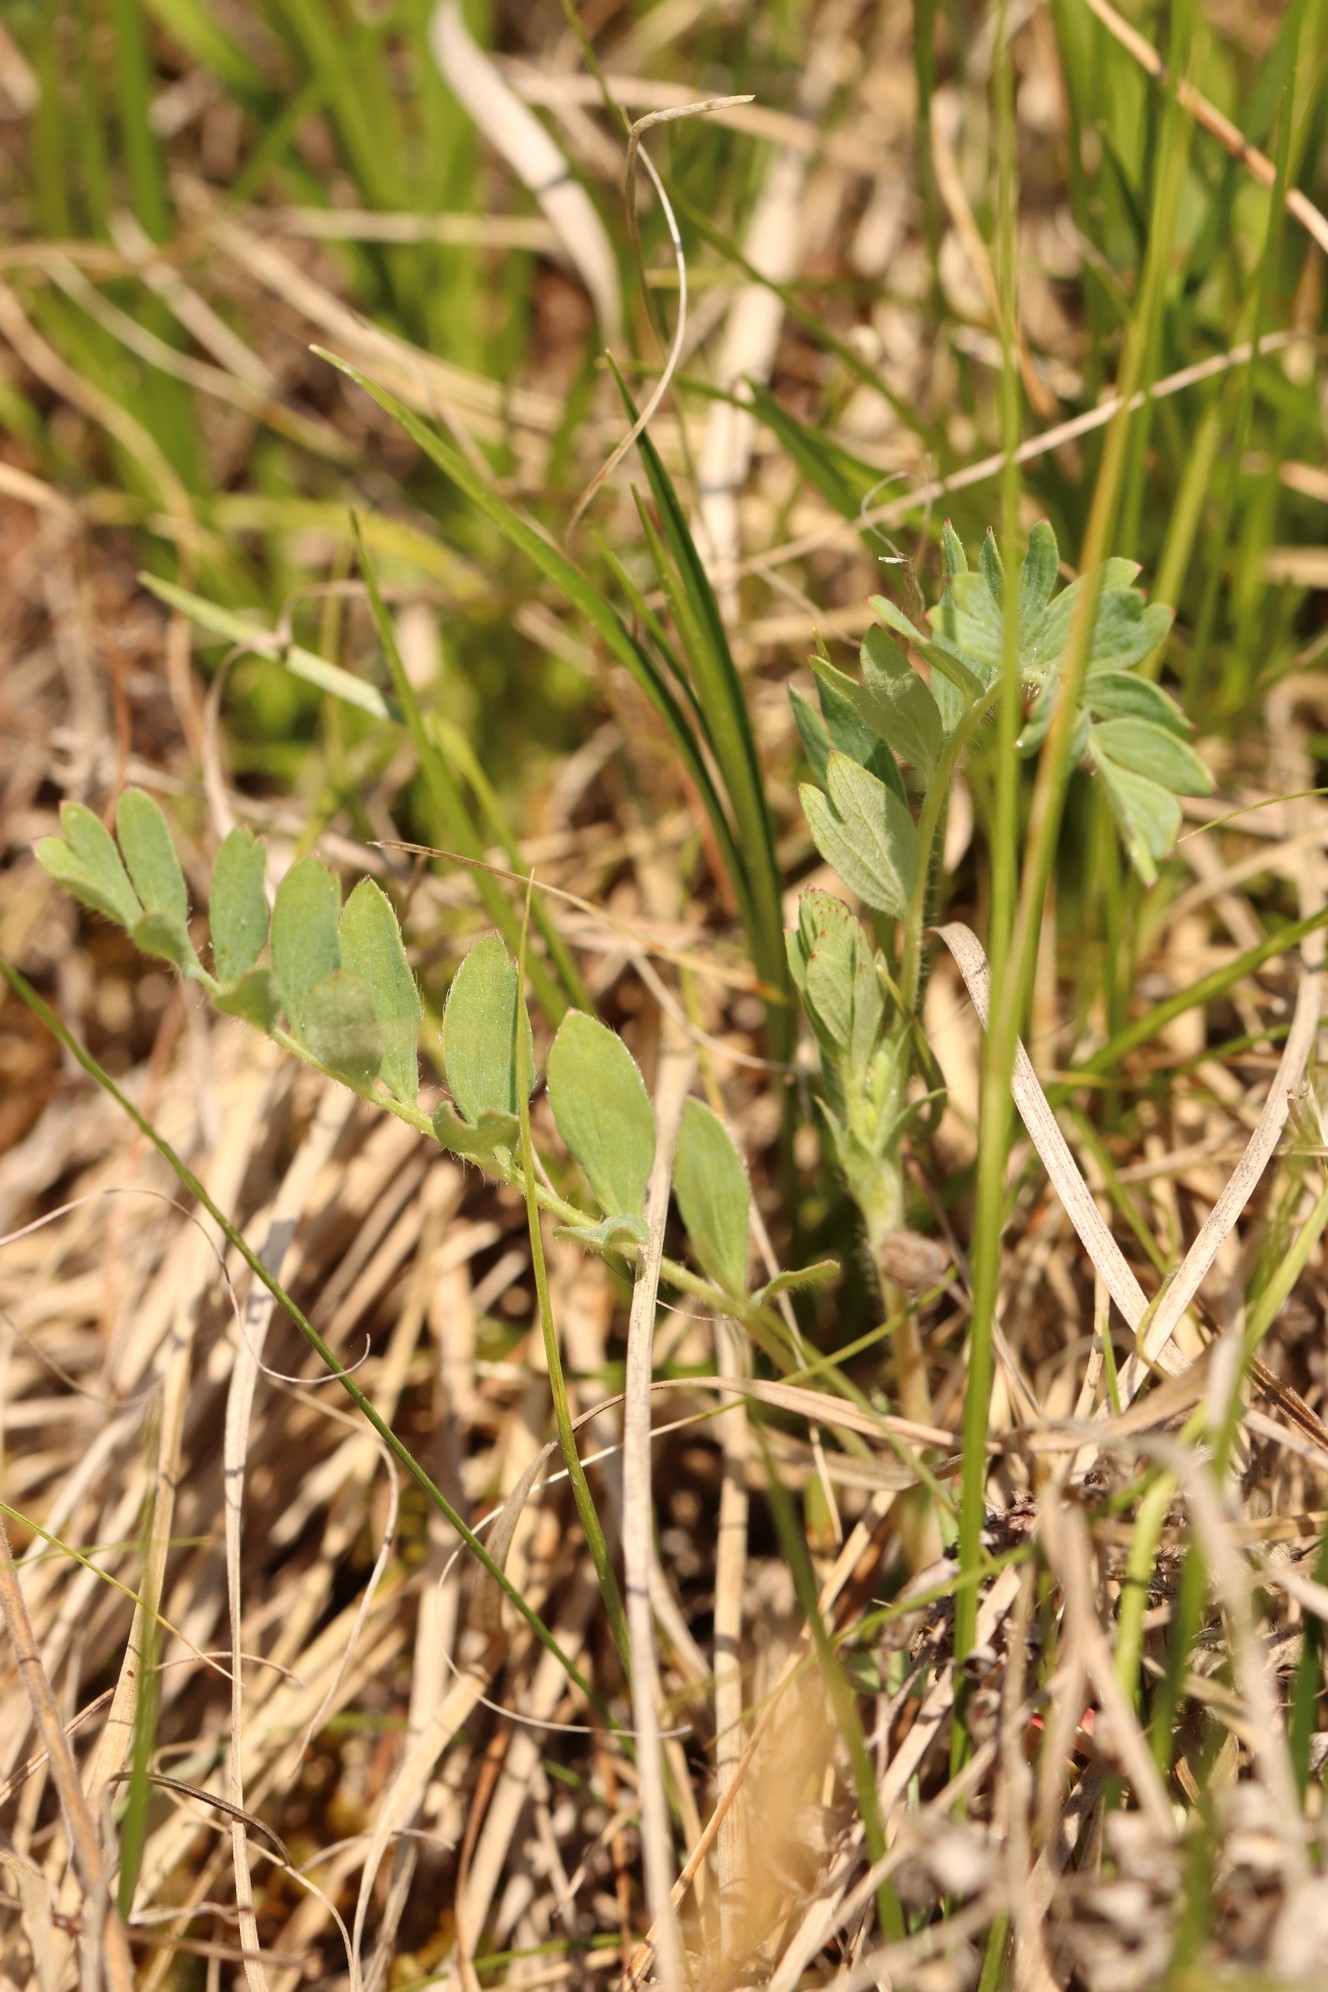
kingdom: Plantae
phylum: Tracheophyta
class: Magnoliopsida
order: Rosales
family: Rosaceae
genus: Sibbaldianthe
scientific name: Sibbaldianthe bifurca
